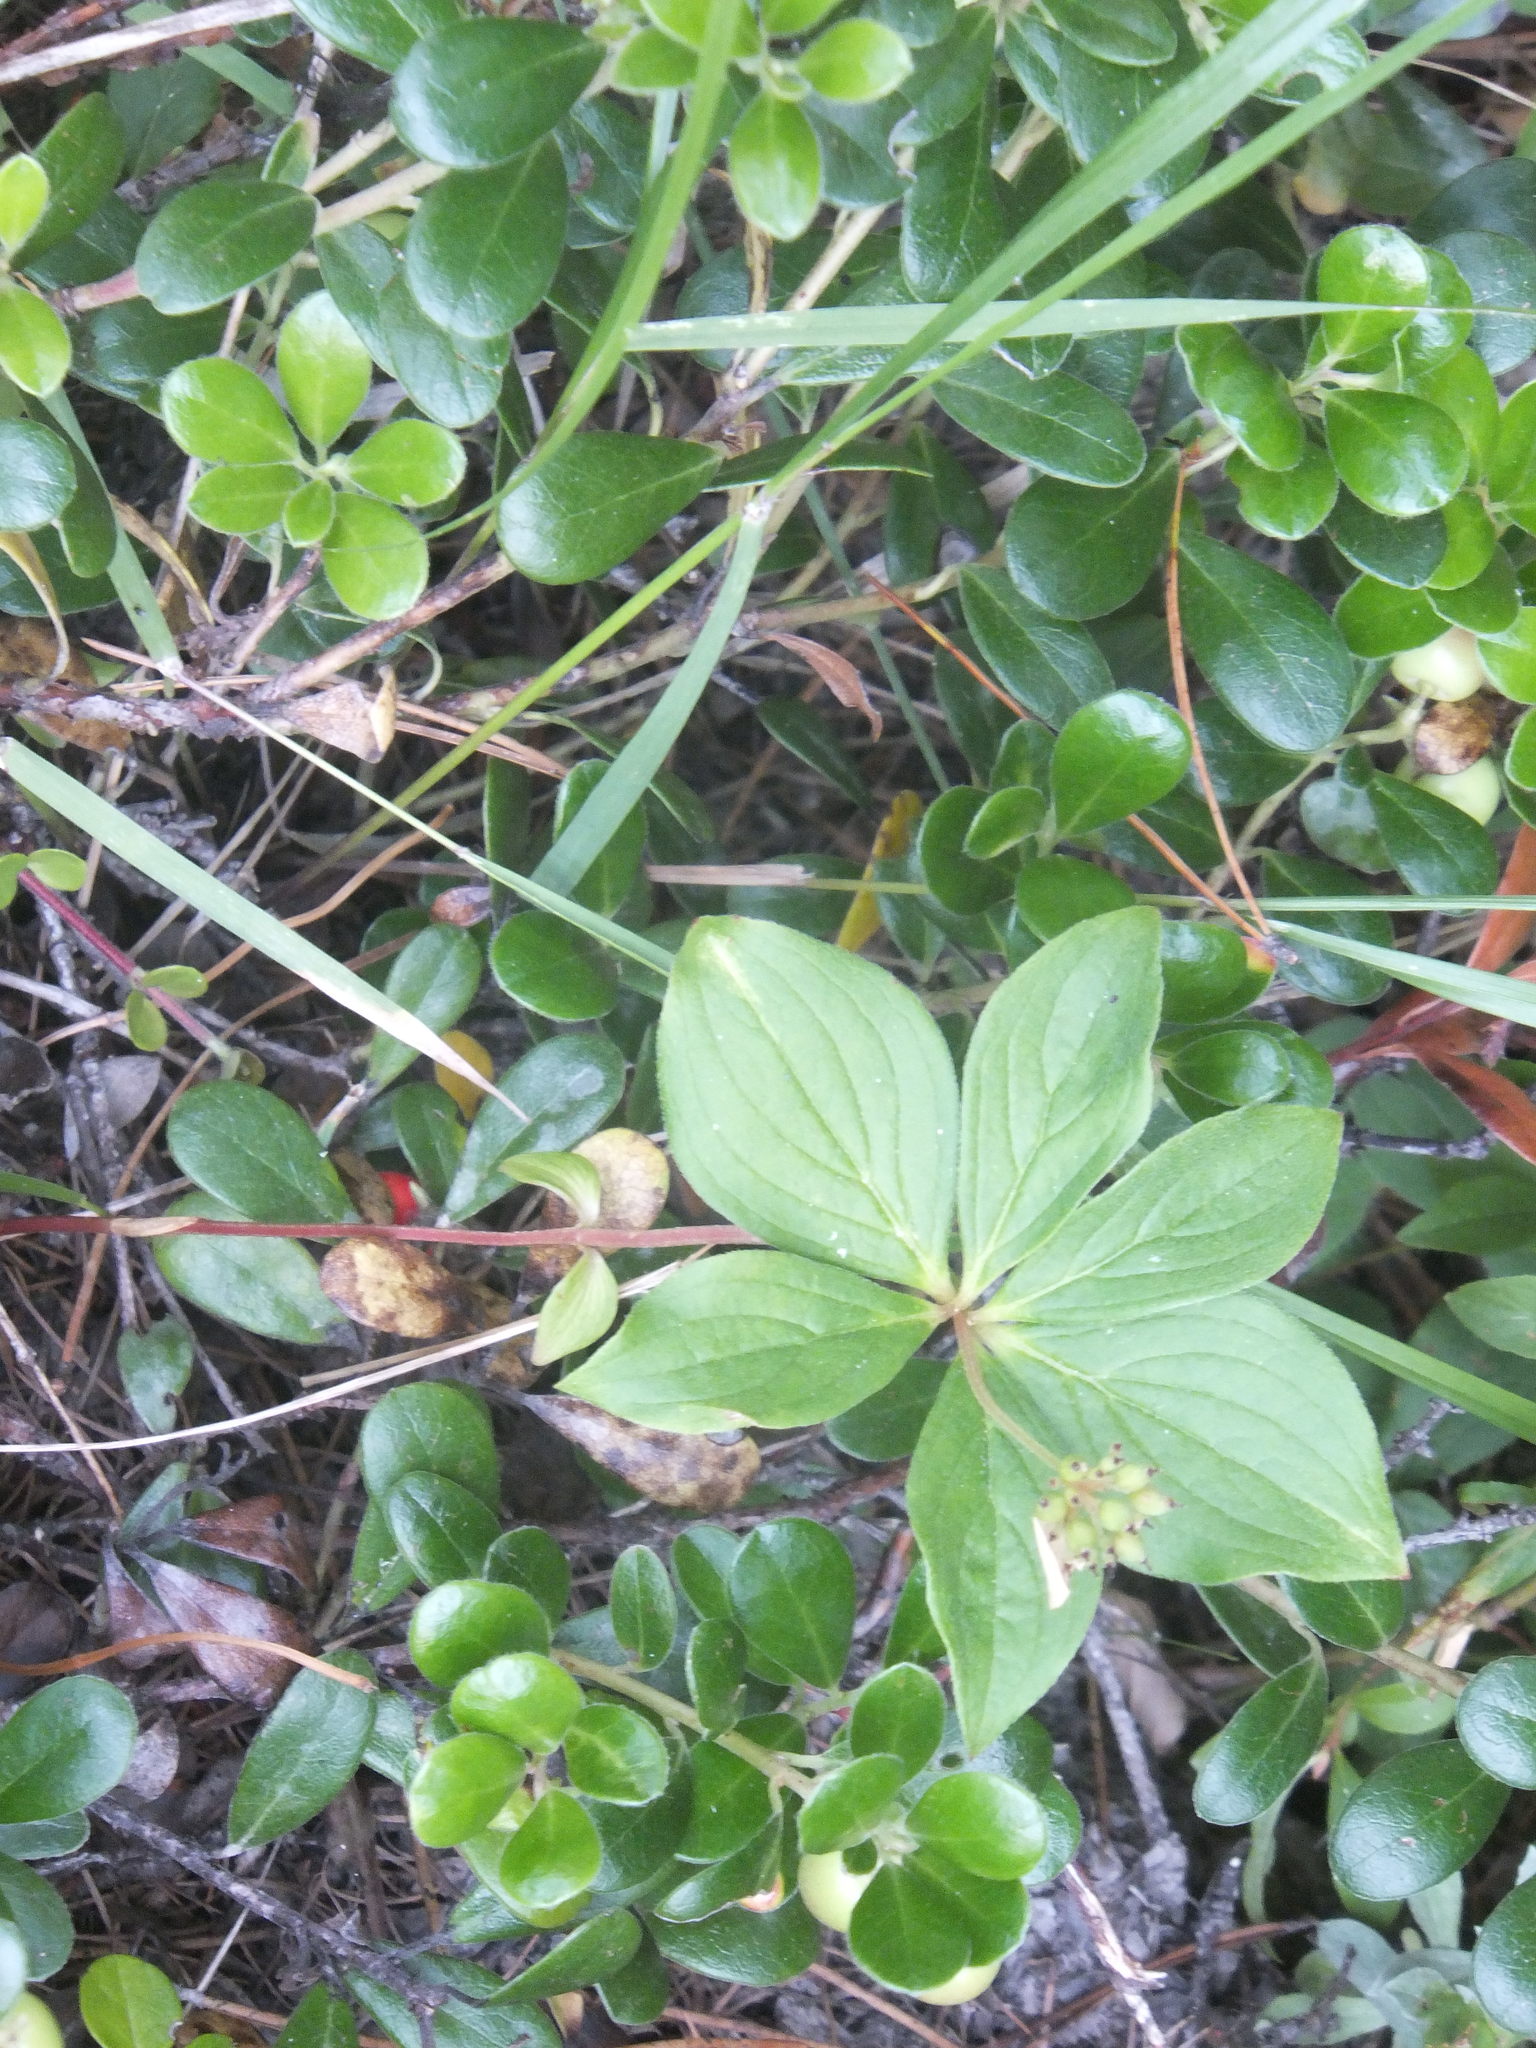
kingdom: Plantae
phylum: Tracheophyta
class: Magnoliopsida
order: Cornales
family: Cornaceae
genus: Cornus
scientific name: Cornus unalaschkensis
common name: Alaska bunchberry
